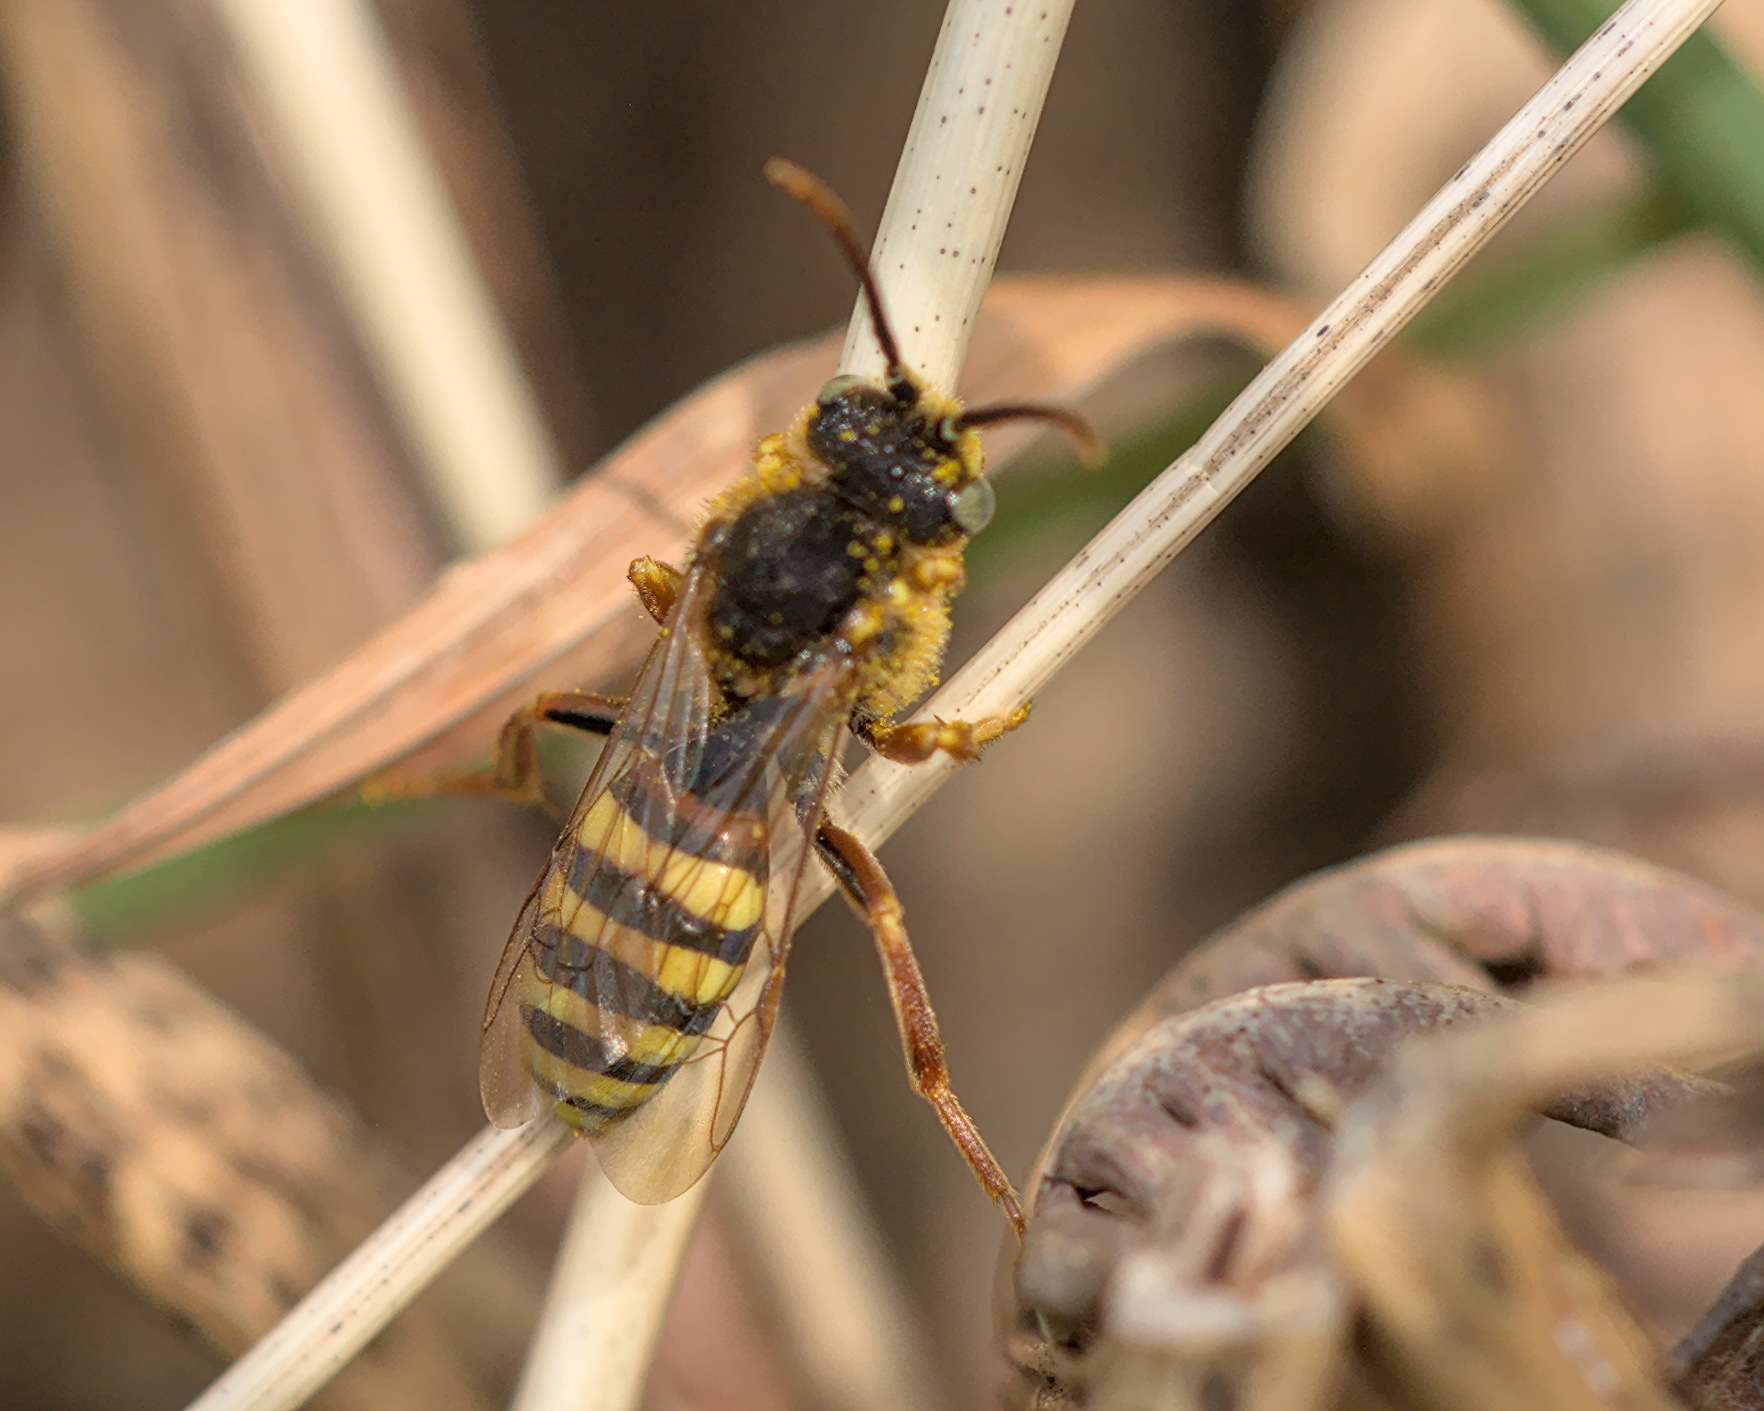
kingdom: Animalia
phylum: Arthropoda
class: Insecta
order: Hymenoptera
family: Apidae
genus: Nomada
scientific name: Nomada lathburiana
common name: Lathbury's nomad bee
